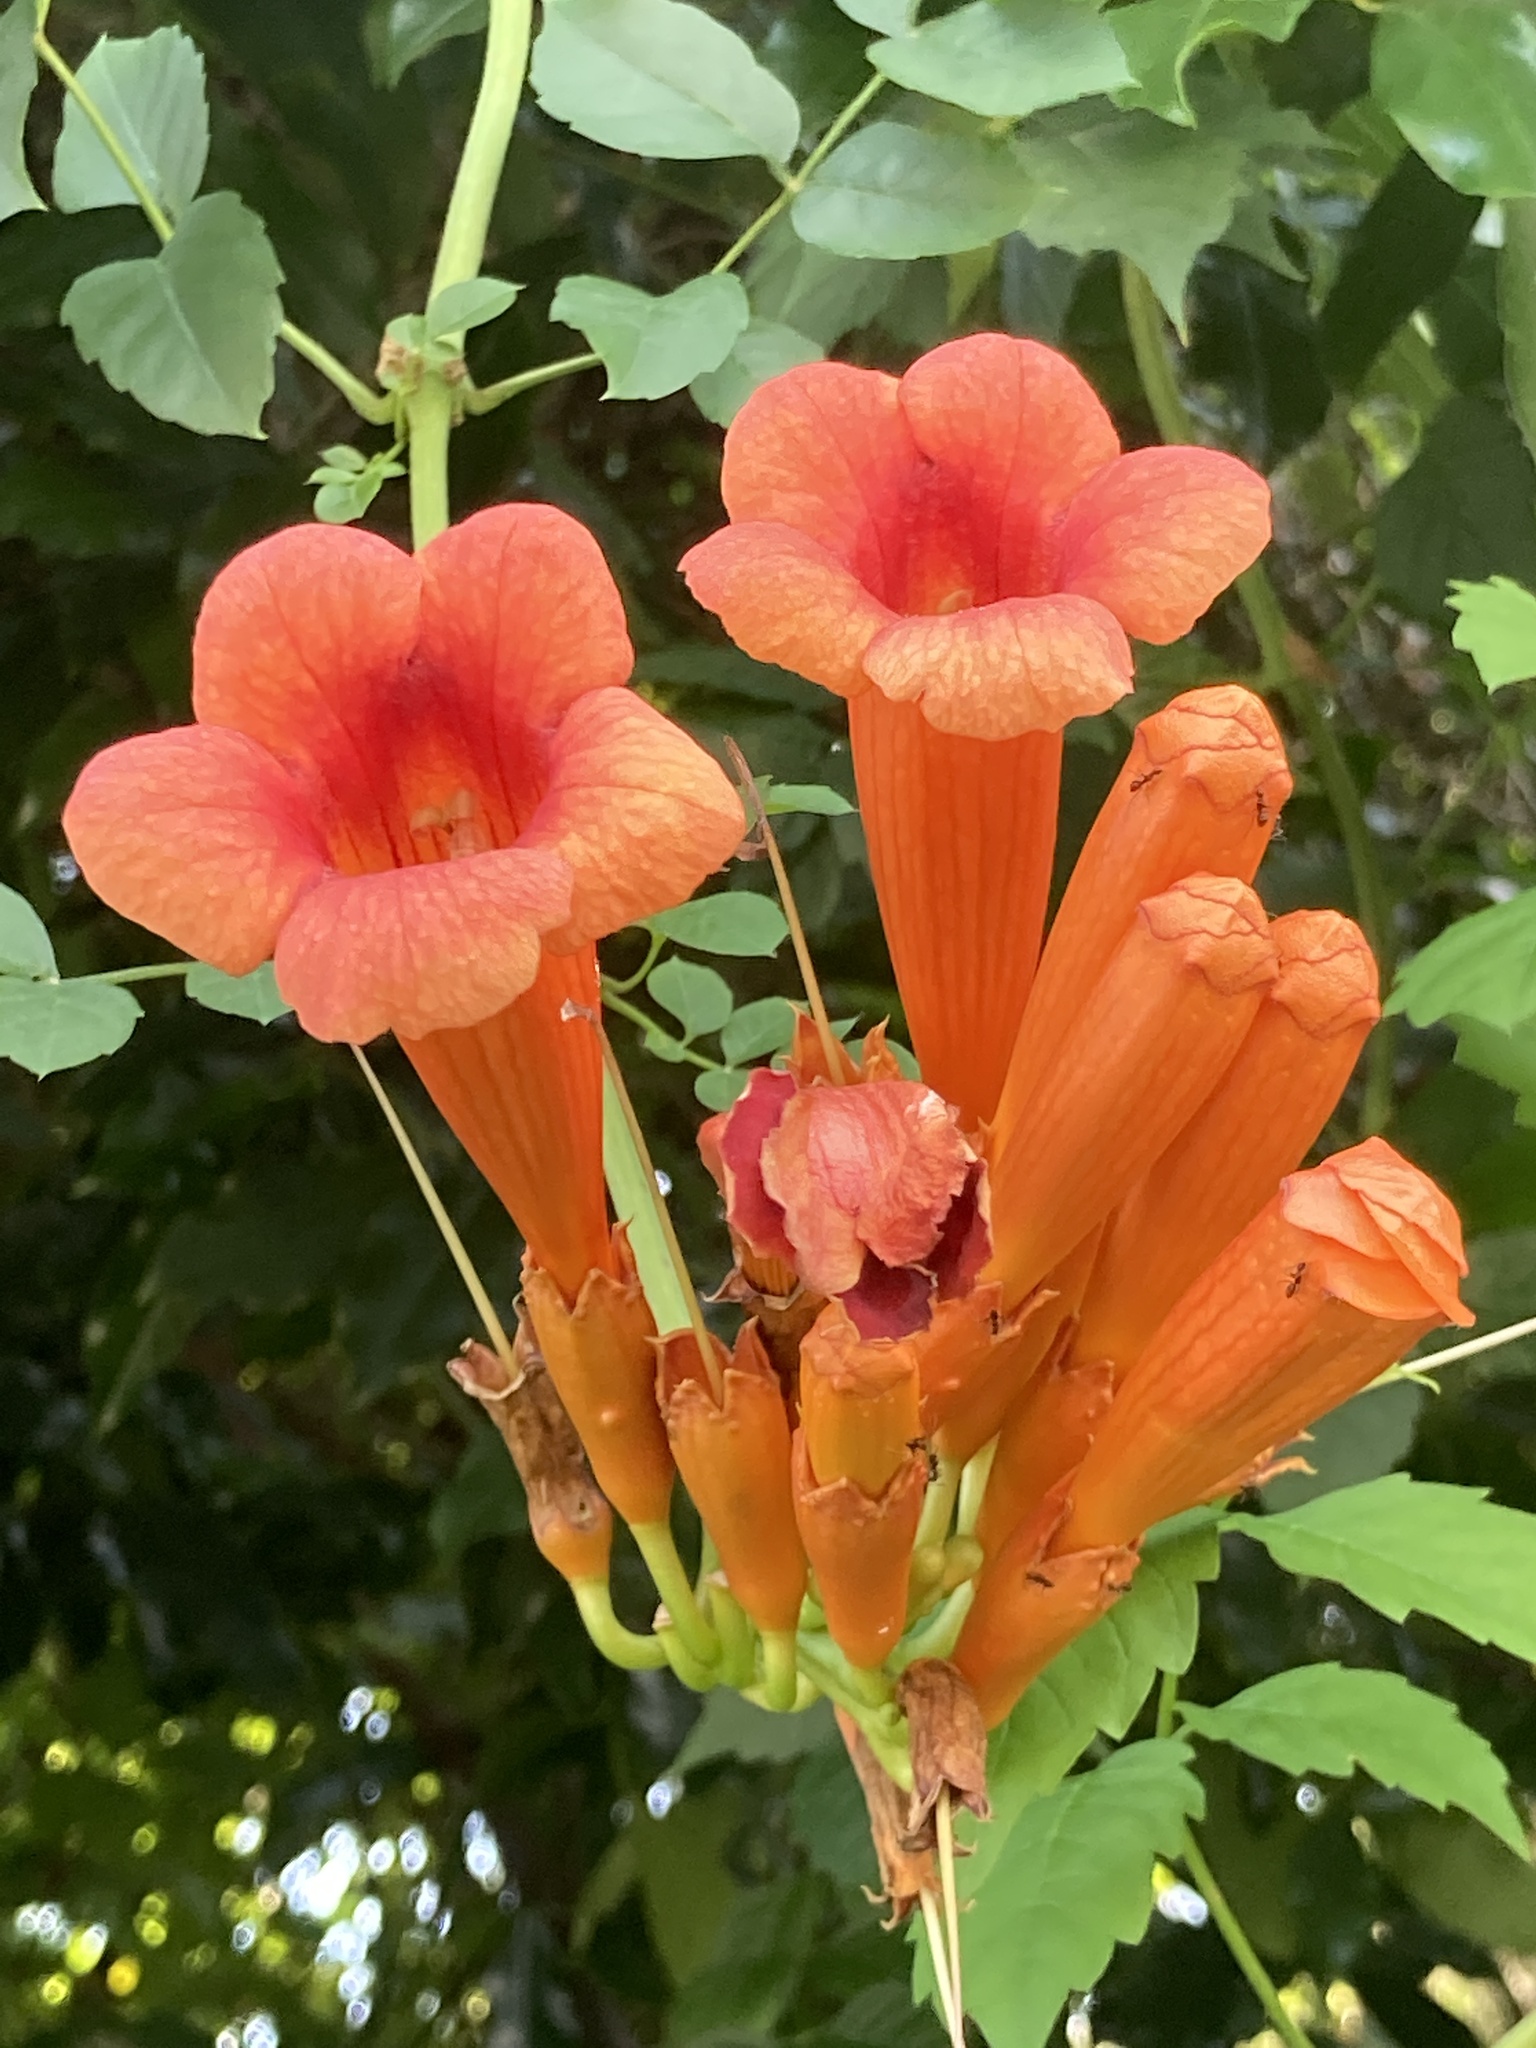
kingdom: Plantae
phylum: Tracheophyta
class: Magnoliopsida
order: Lamiales
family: Bignoniaceae
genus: Campsis
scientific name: Campsis radicans
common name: Trumpet-creeper
